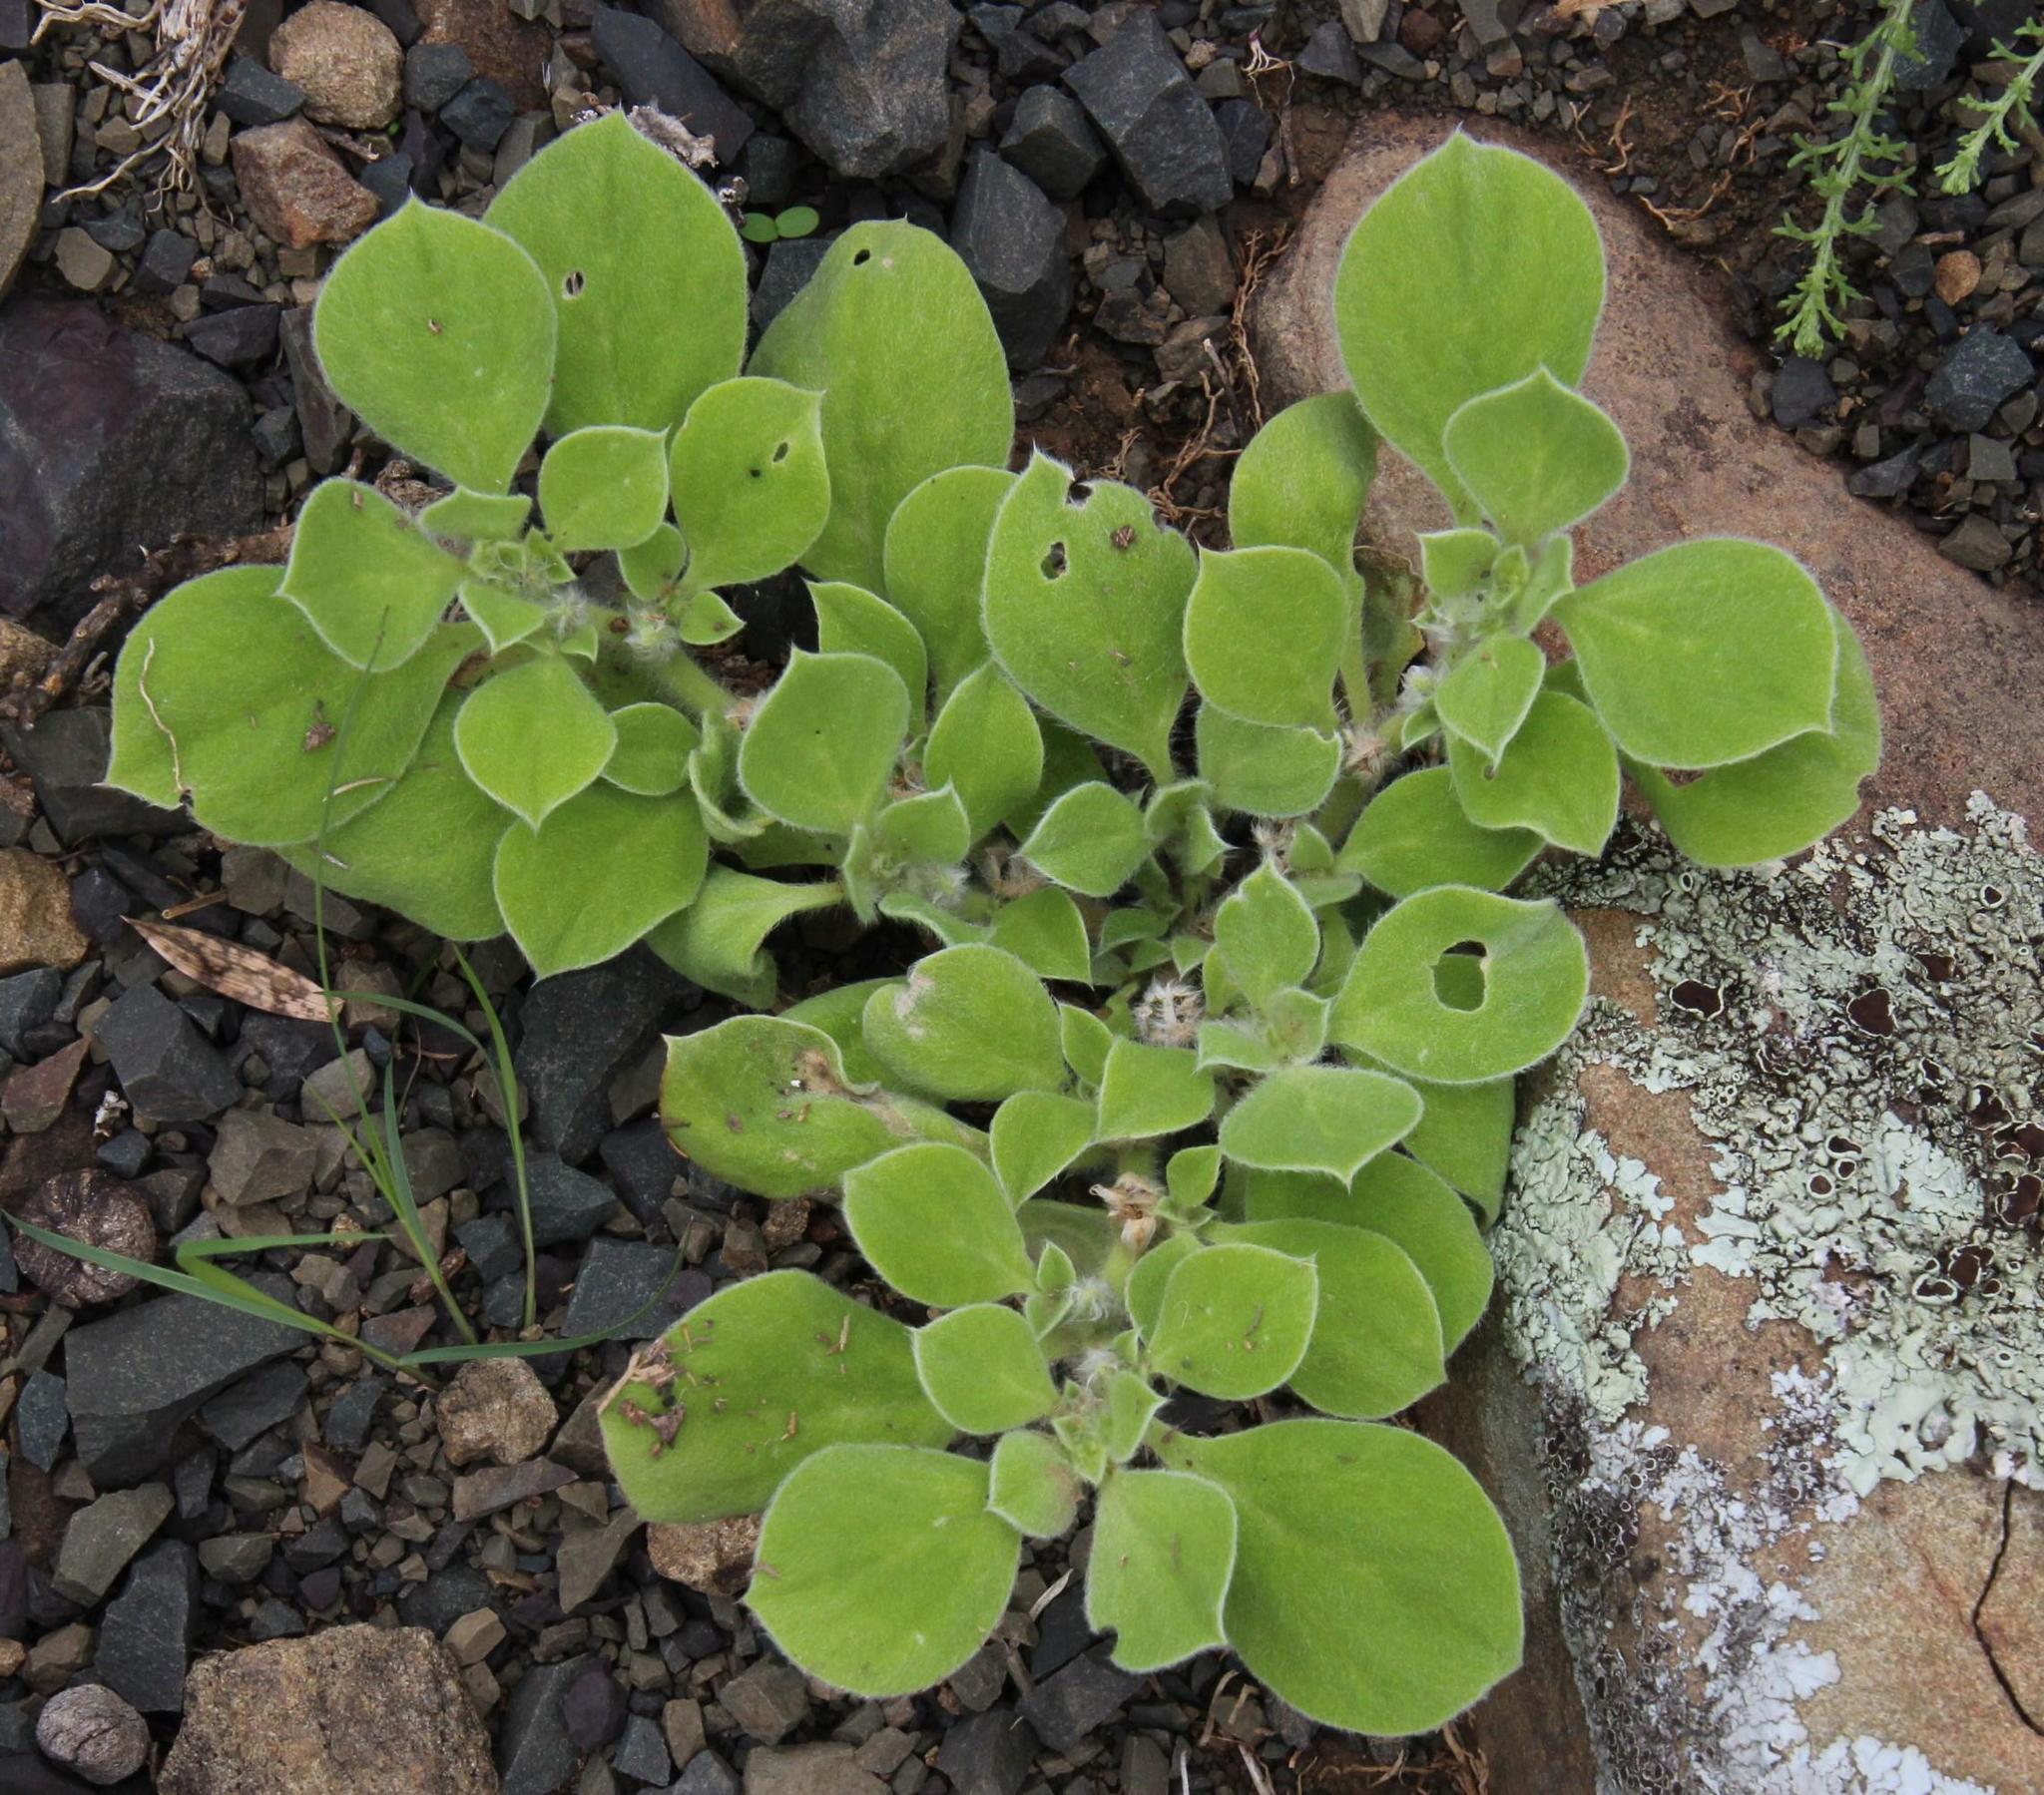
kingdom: Plantae
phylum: Tracheophyta
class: Magnoliopsida
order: Caryophyllales
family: Aizoaceae
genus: Aizoon
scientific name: Aizoon glinoides
